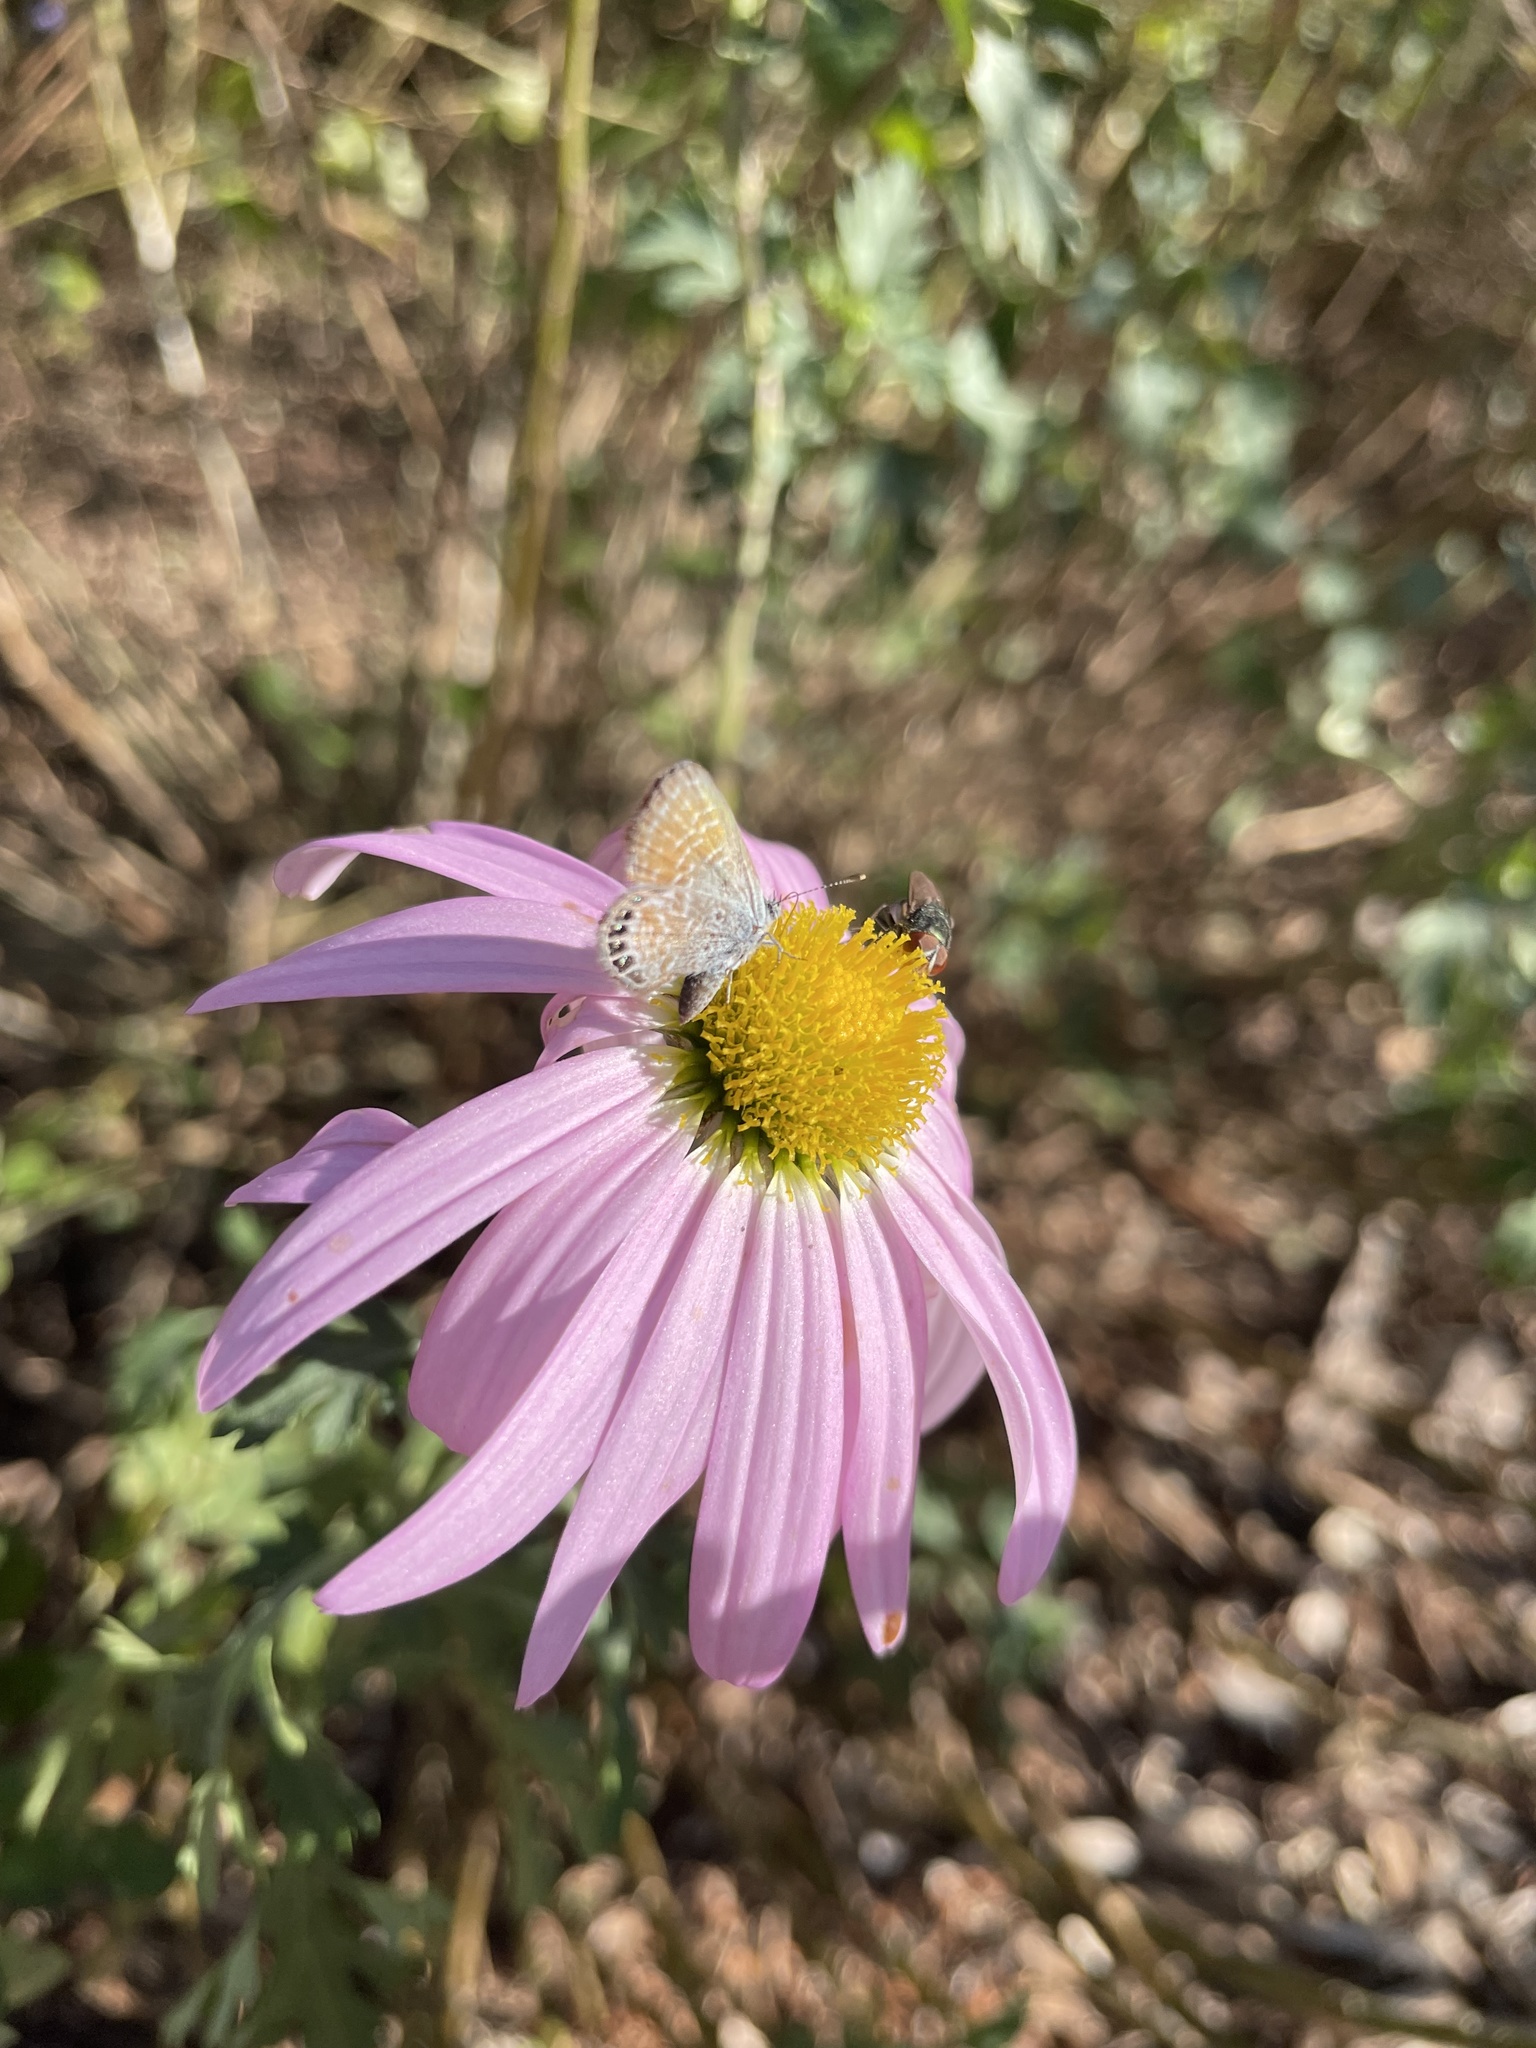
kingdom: Animalia
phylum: Arthropoda
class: Insecta
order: Lepidoptera
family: Lycaenidae
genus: Brephidium
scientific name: Brephidium exilis
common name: Pygmy blue
